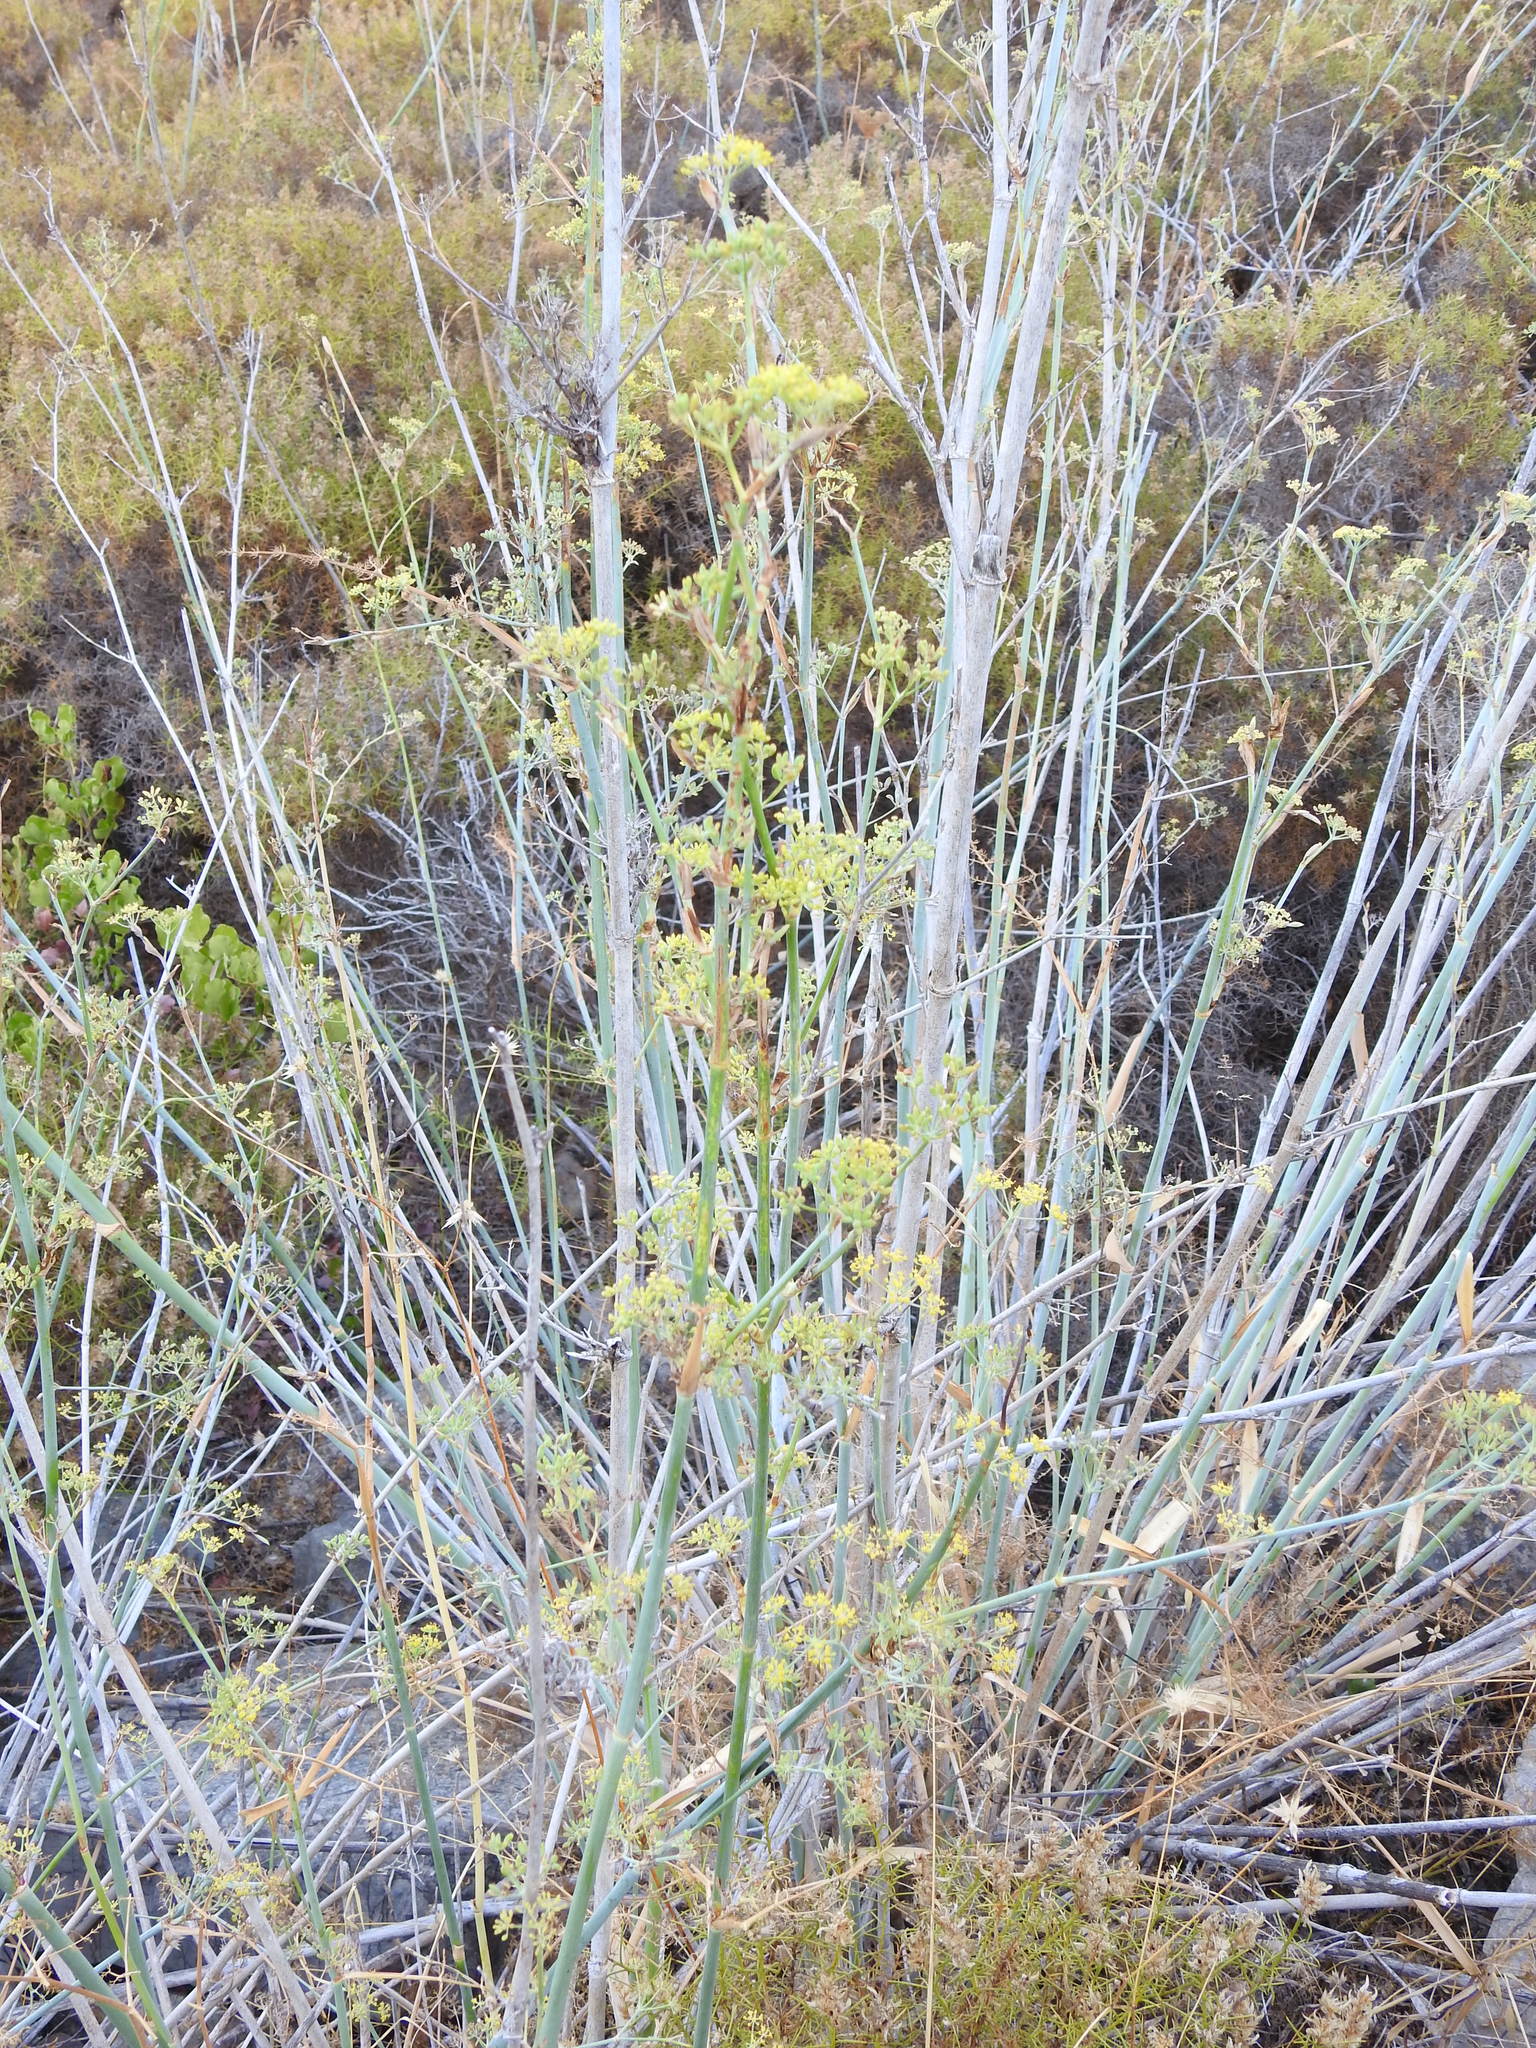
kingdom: Plantae
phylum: Tracheophyta
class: Magnoliopsida
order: Apiales
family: Apiaceae
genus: Foeniculum
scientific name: Foeniculum vulgare
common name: Fennel
